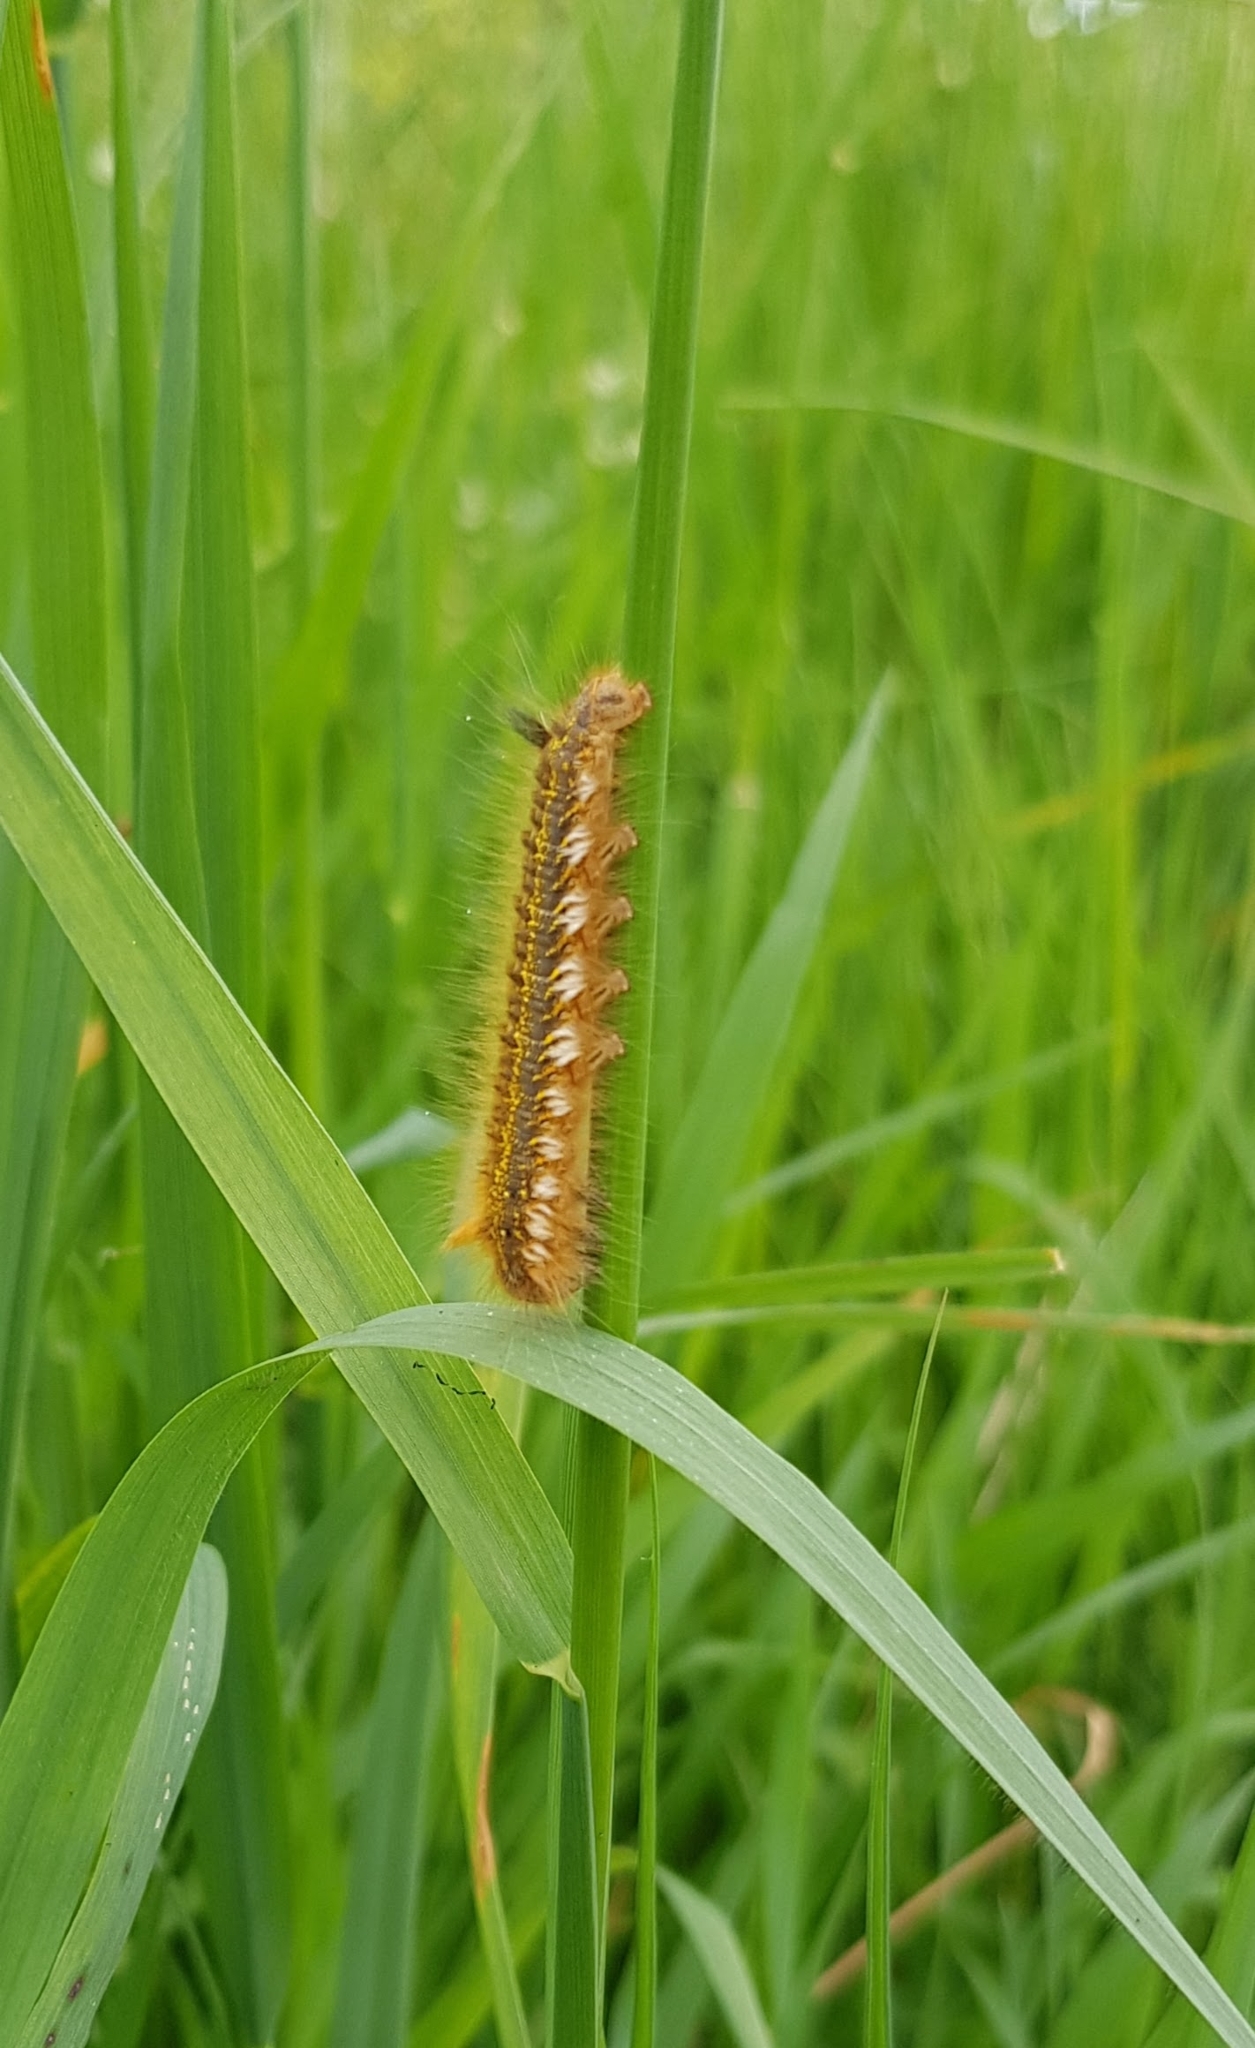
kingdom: Animalia
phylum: Arthropoda
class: Insecta
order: Lepidoptera
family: Lasiocampidae
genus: Euthrix
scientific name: Euthrix potatoria
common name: Drinker
